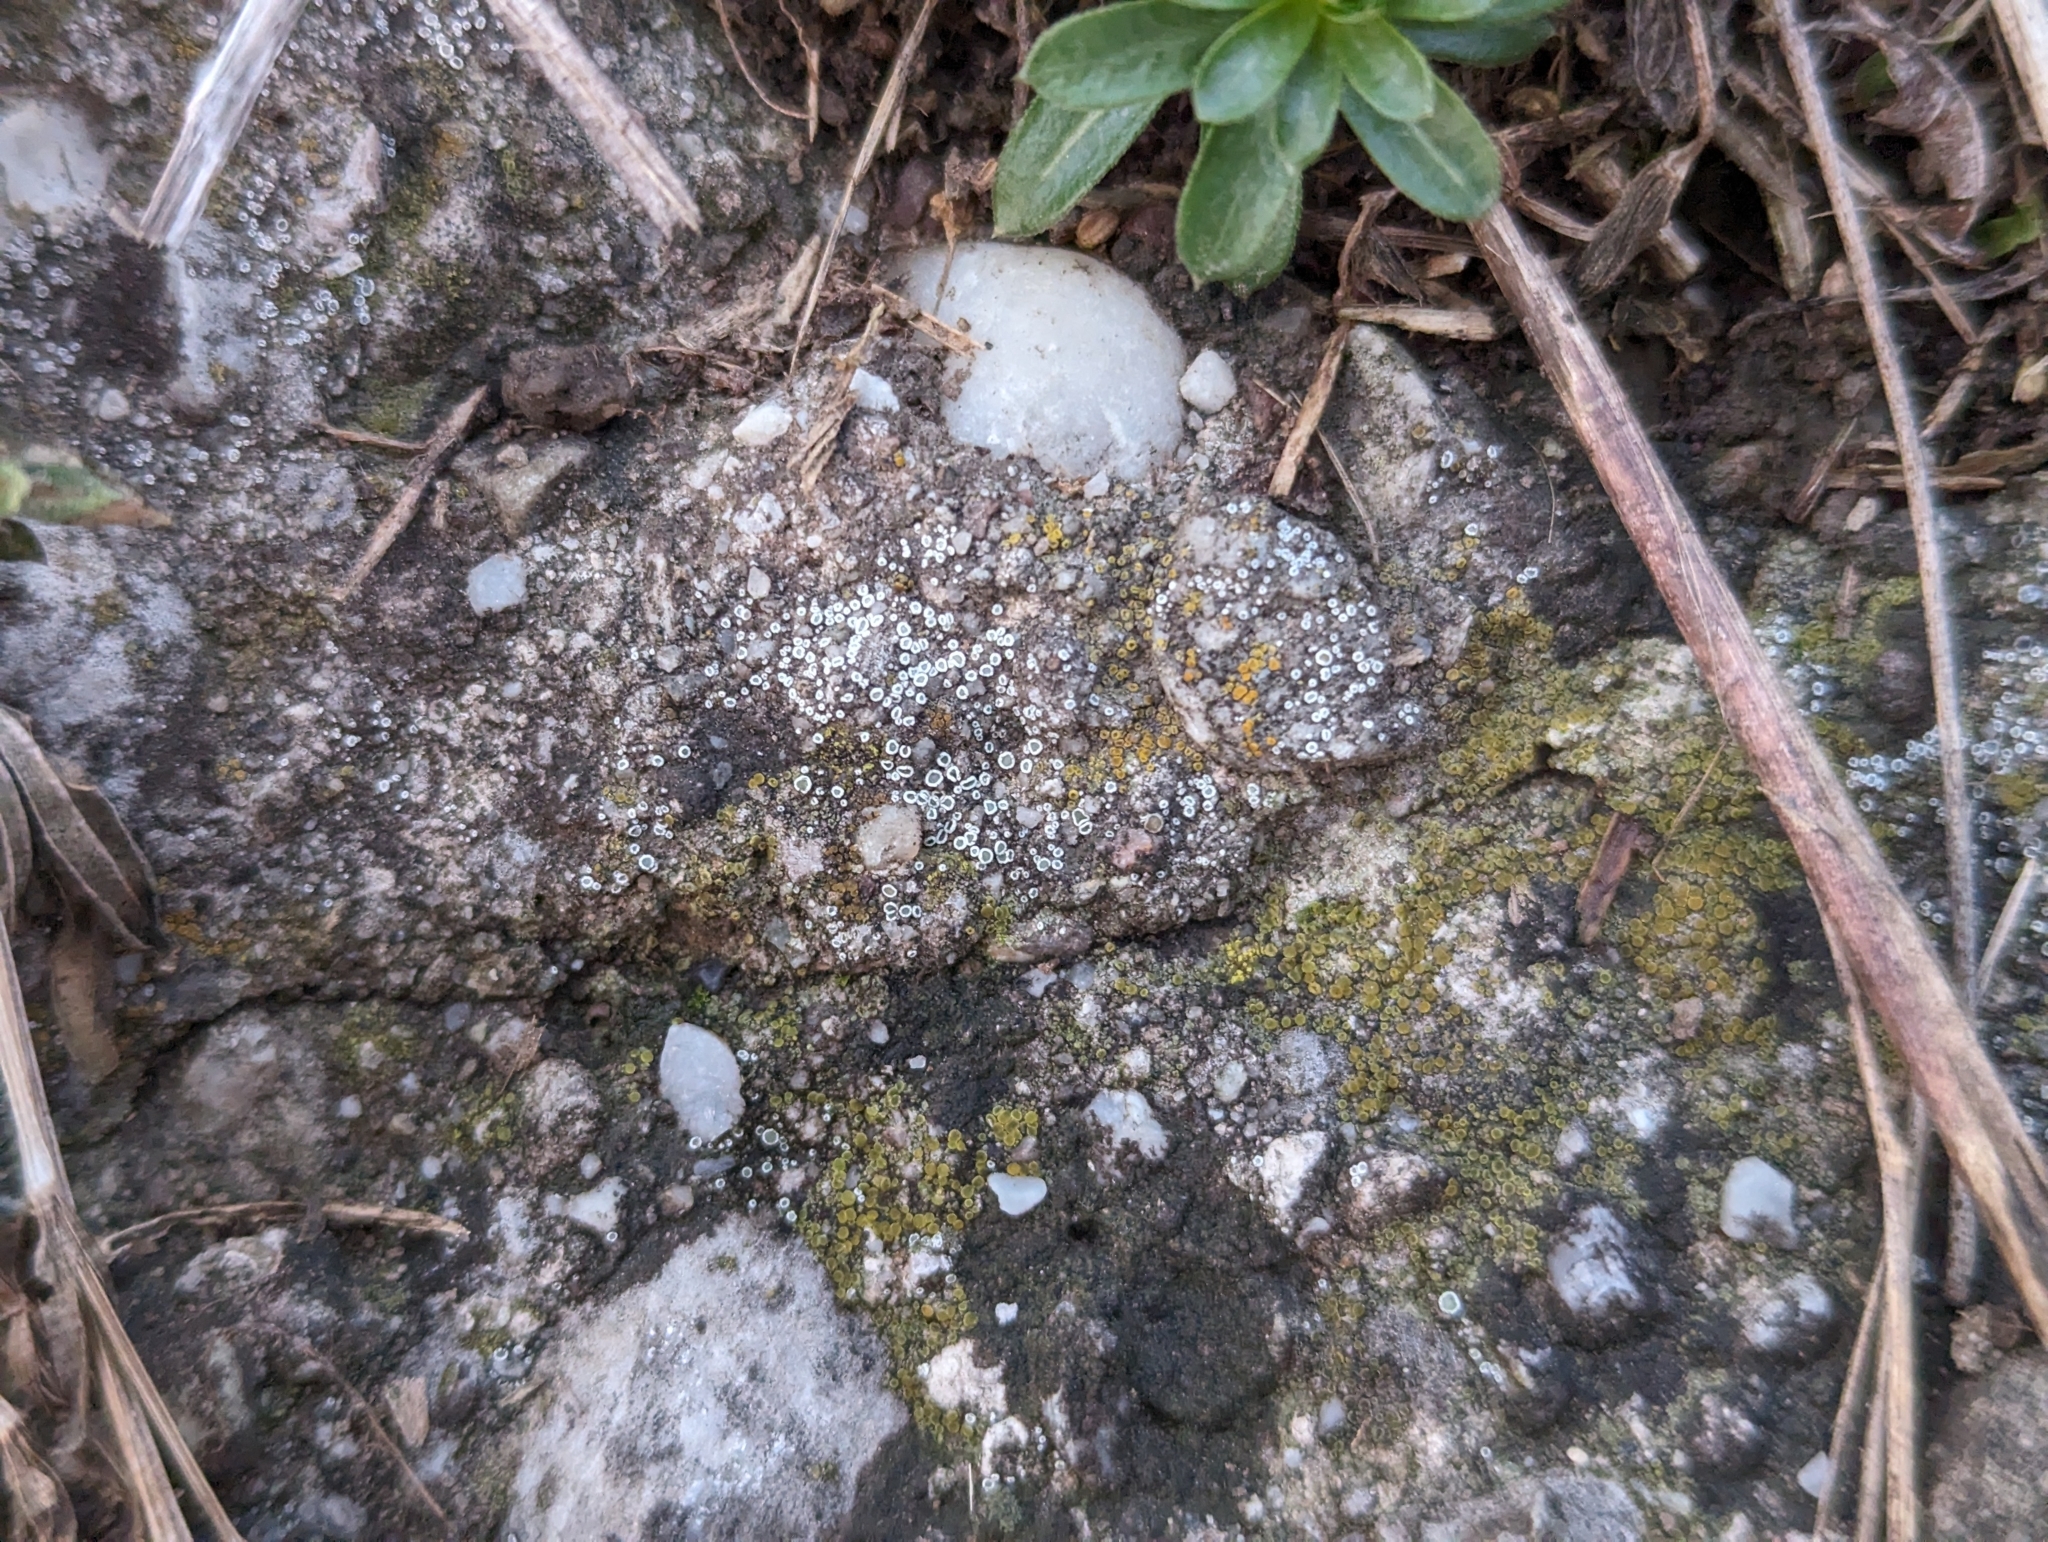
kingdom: Fungi
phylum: Ascomycota
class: Lecanoromycetes
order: Lecanorales
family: Lecanoraceae
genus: Polyozosia
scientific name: Polyozosia semipallida
